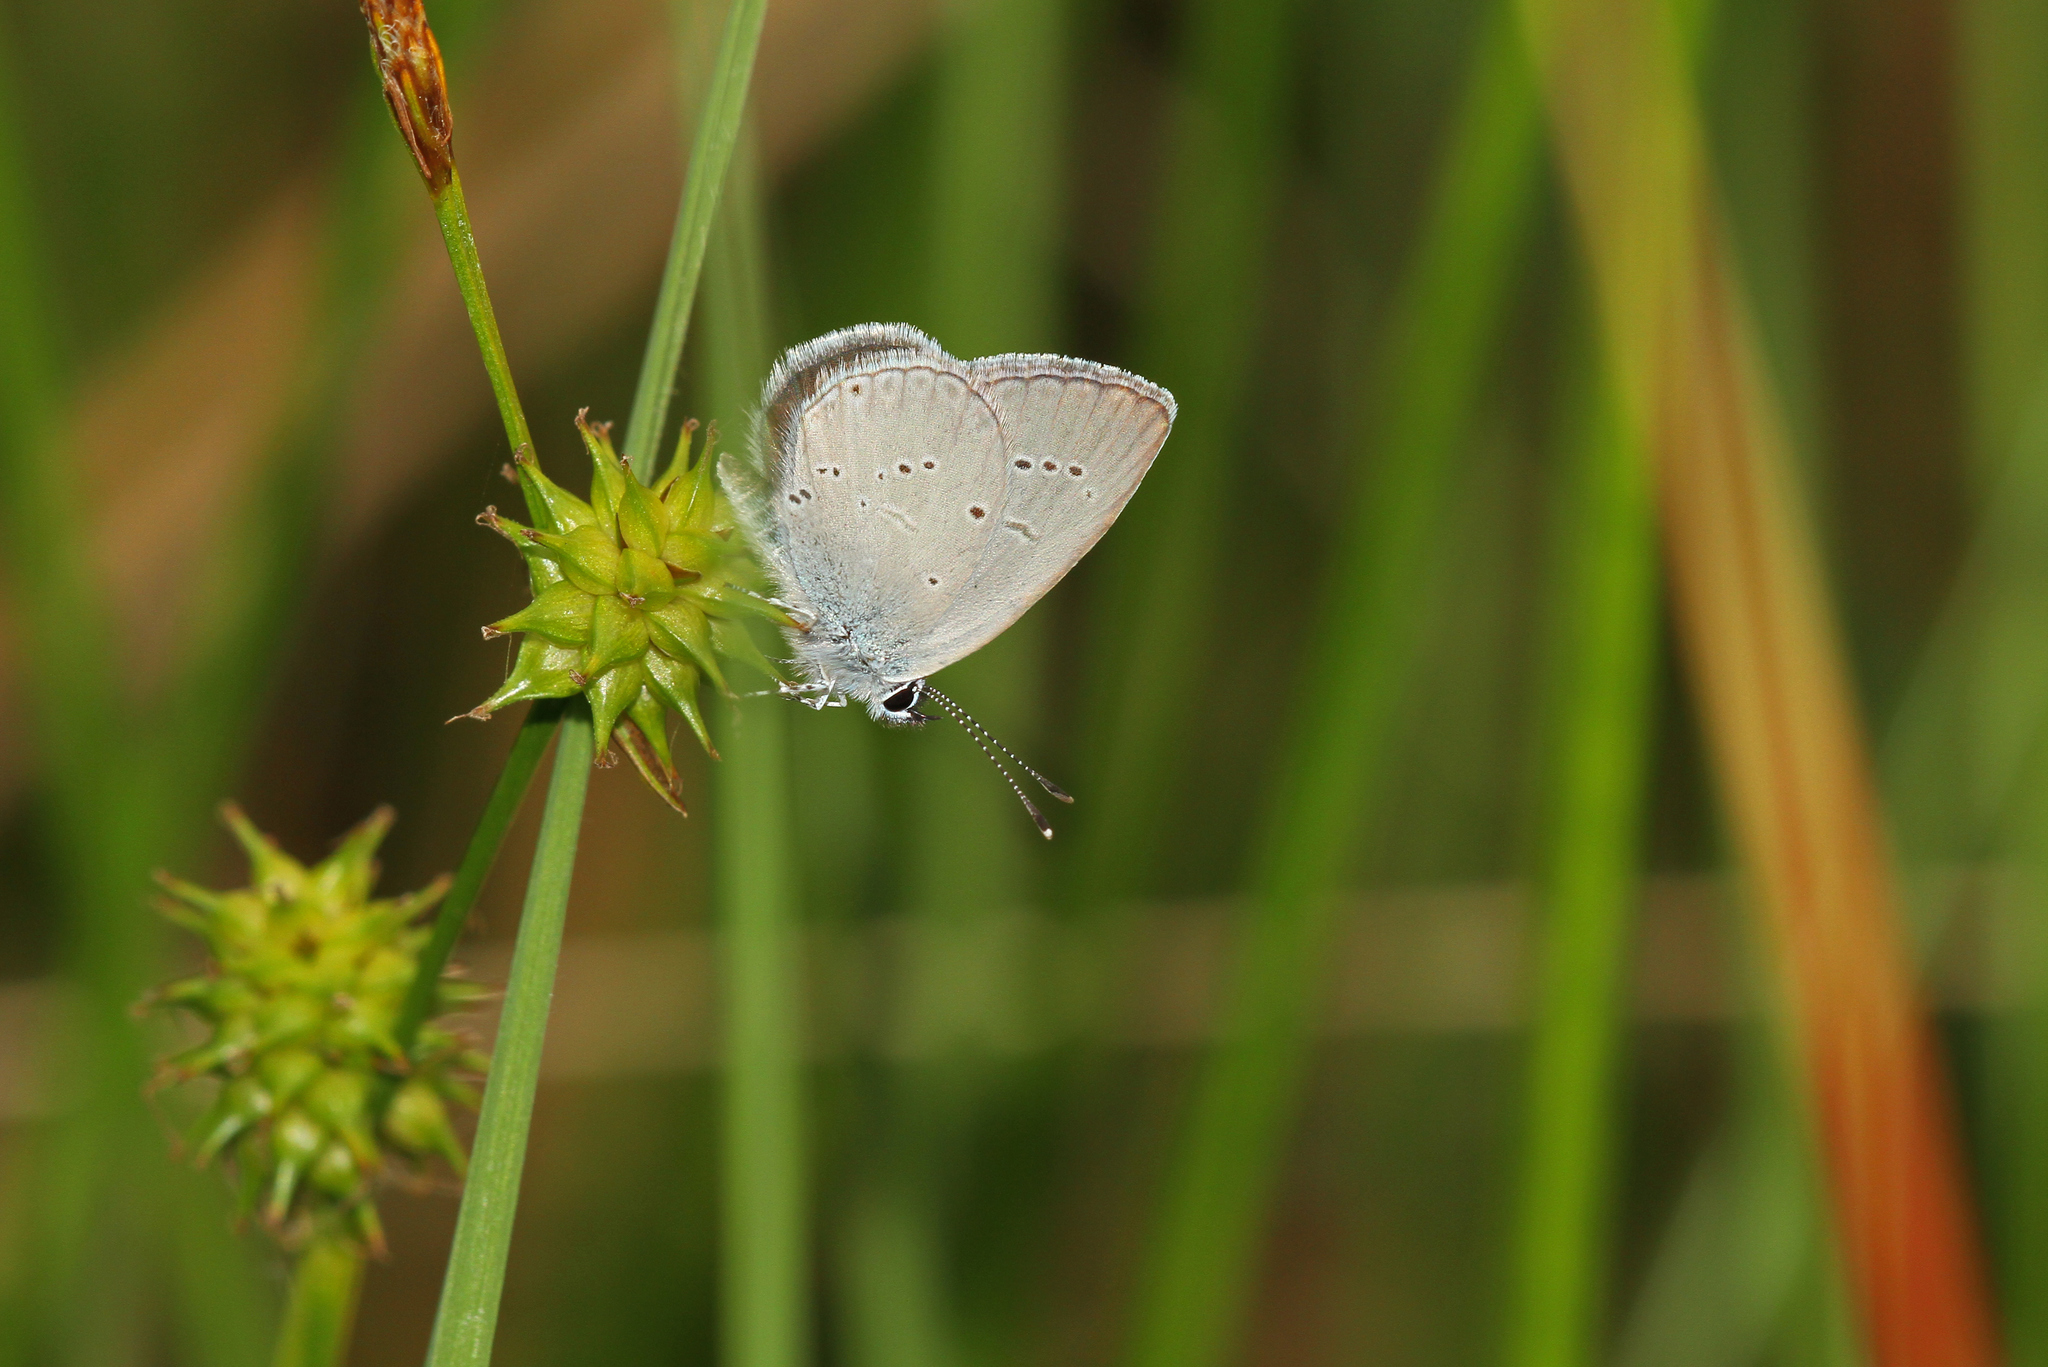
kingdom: Animalia
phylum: Arthropoda
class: Insecta
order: Lepidoptera
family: Lycaenidae
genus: Cupido
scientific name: Cupido minimus
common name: Small blue
